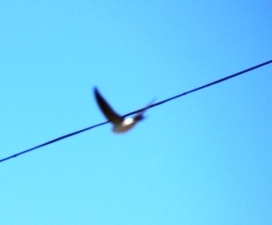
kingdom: Animalia
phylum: Chordata
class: Aves
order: Passeriformes
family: Hirundinidae
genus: Delichon
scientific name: Delichon urbicum
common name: Common house martin
